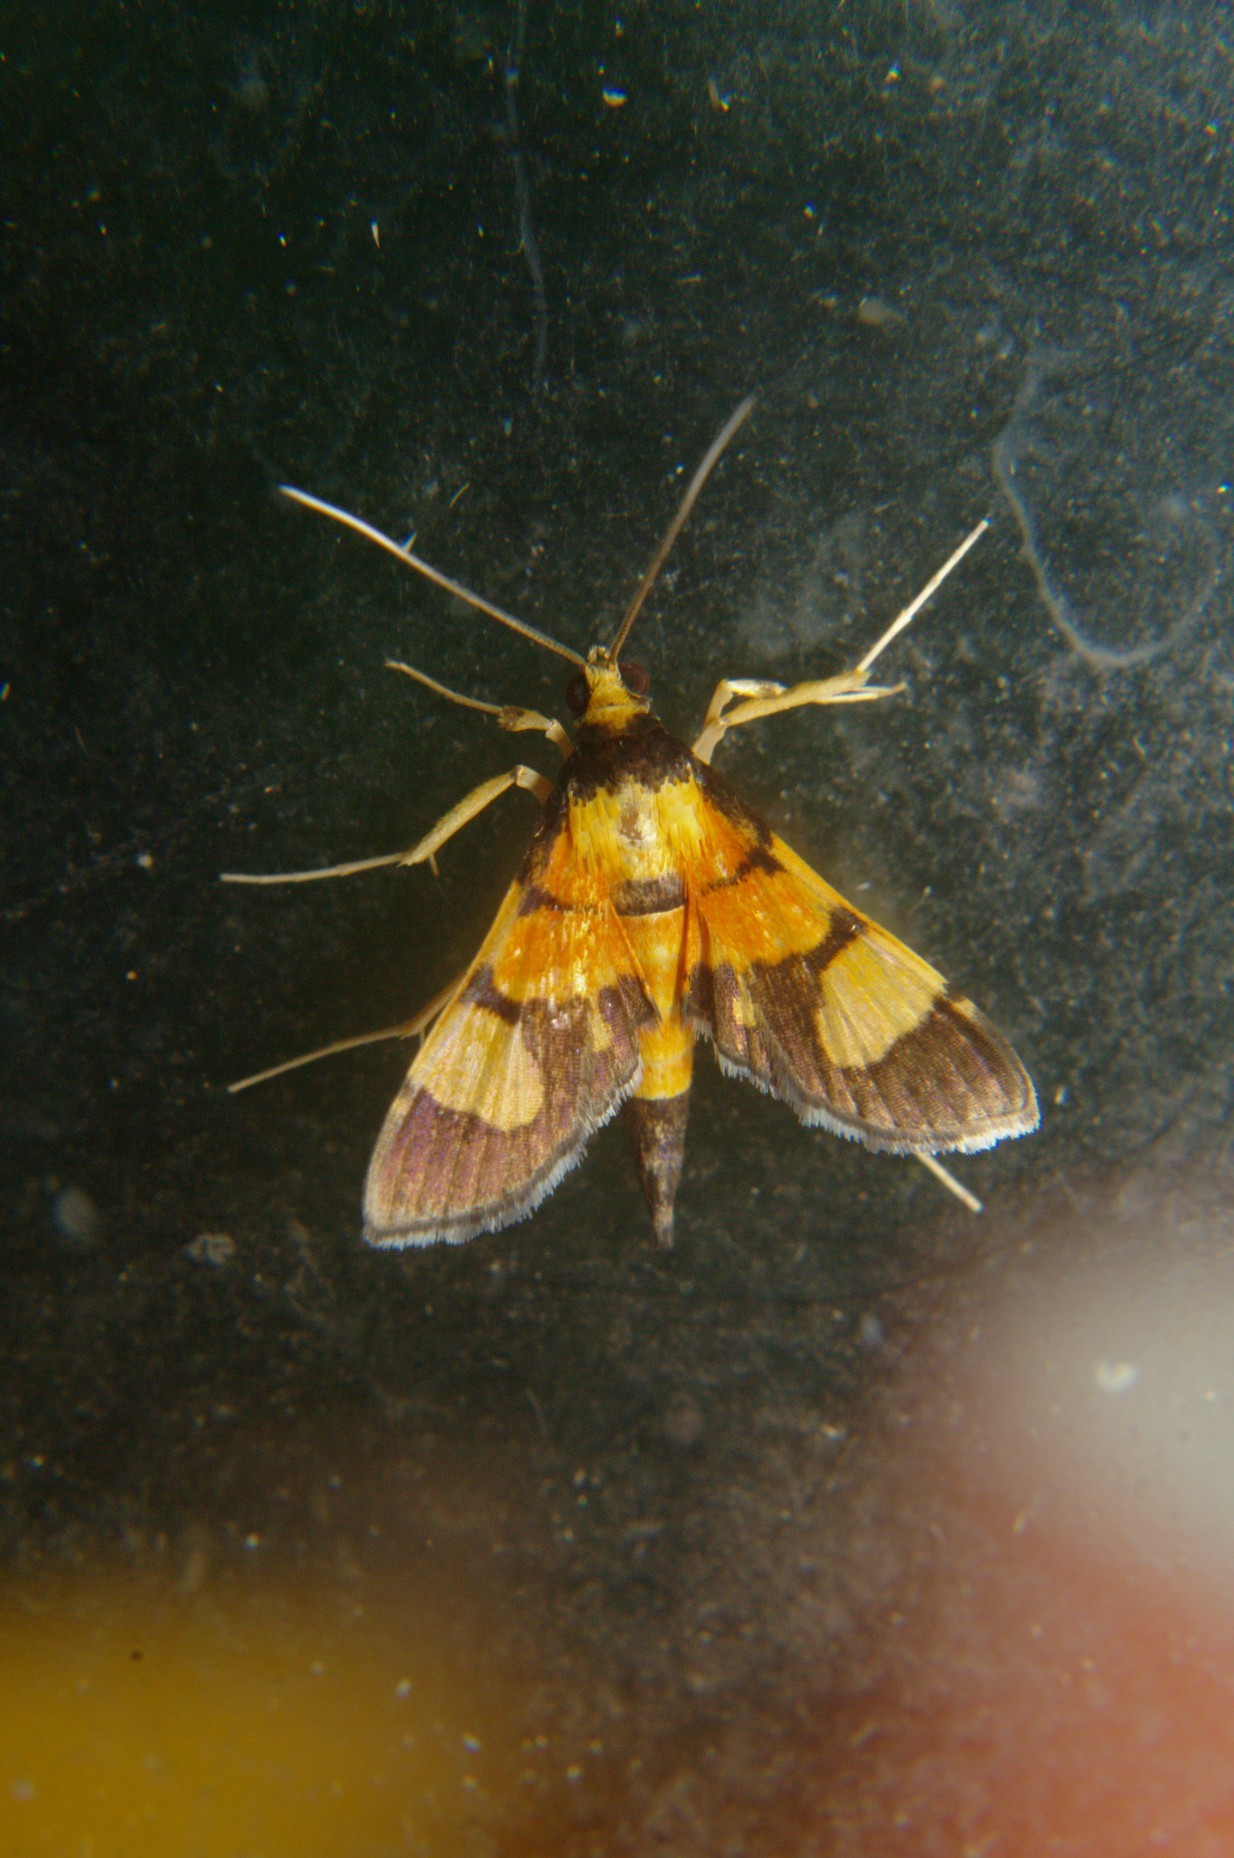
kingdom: Animalia
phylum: Arthropoda
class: Insecta
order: Lepidoptera
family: Crambidae
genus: Aethaloessa
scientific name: Aethaloessa calidalis
